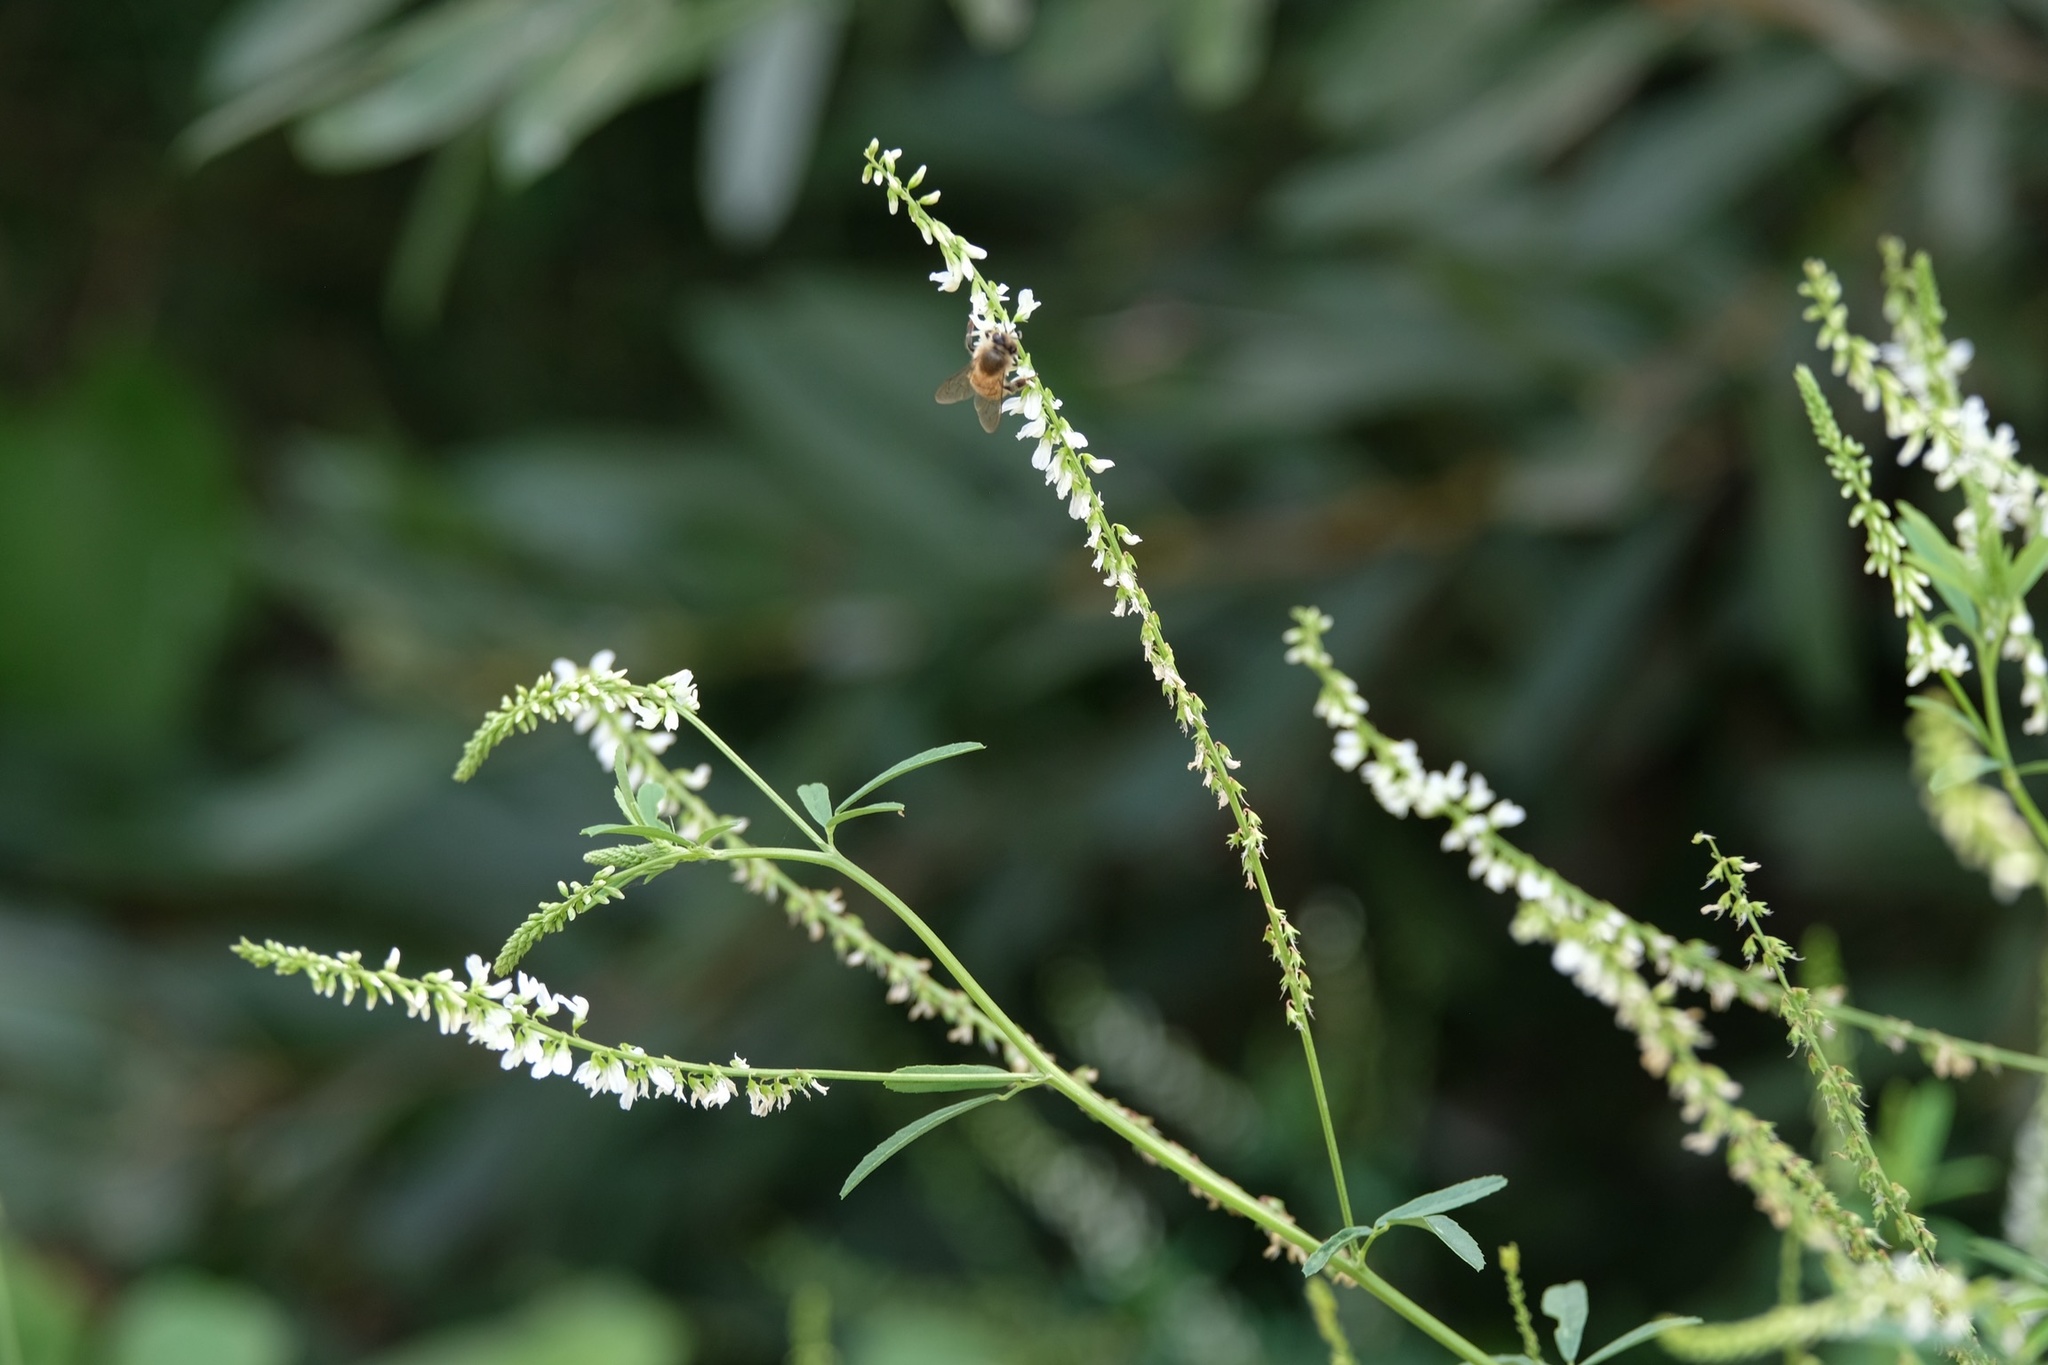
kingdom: Plantae
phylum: Tracheophyta
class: Magnoliopsida
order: Fabales
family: Fabaceae
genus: Melilotus
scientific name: Melilotus albus
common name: White melilot
